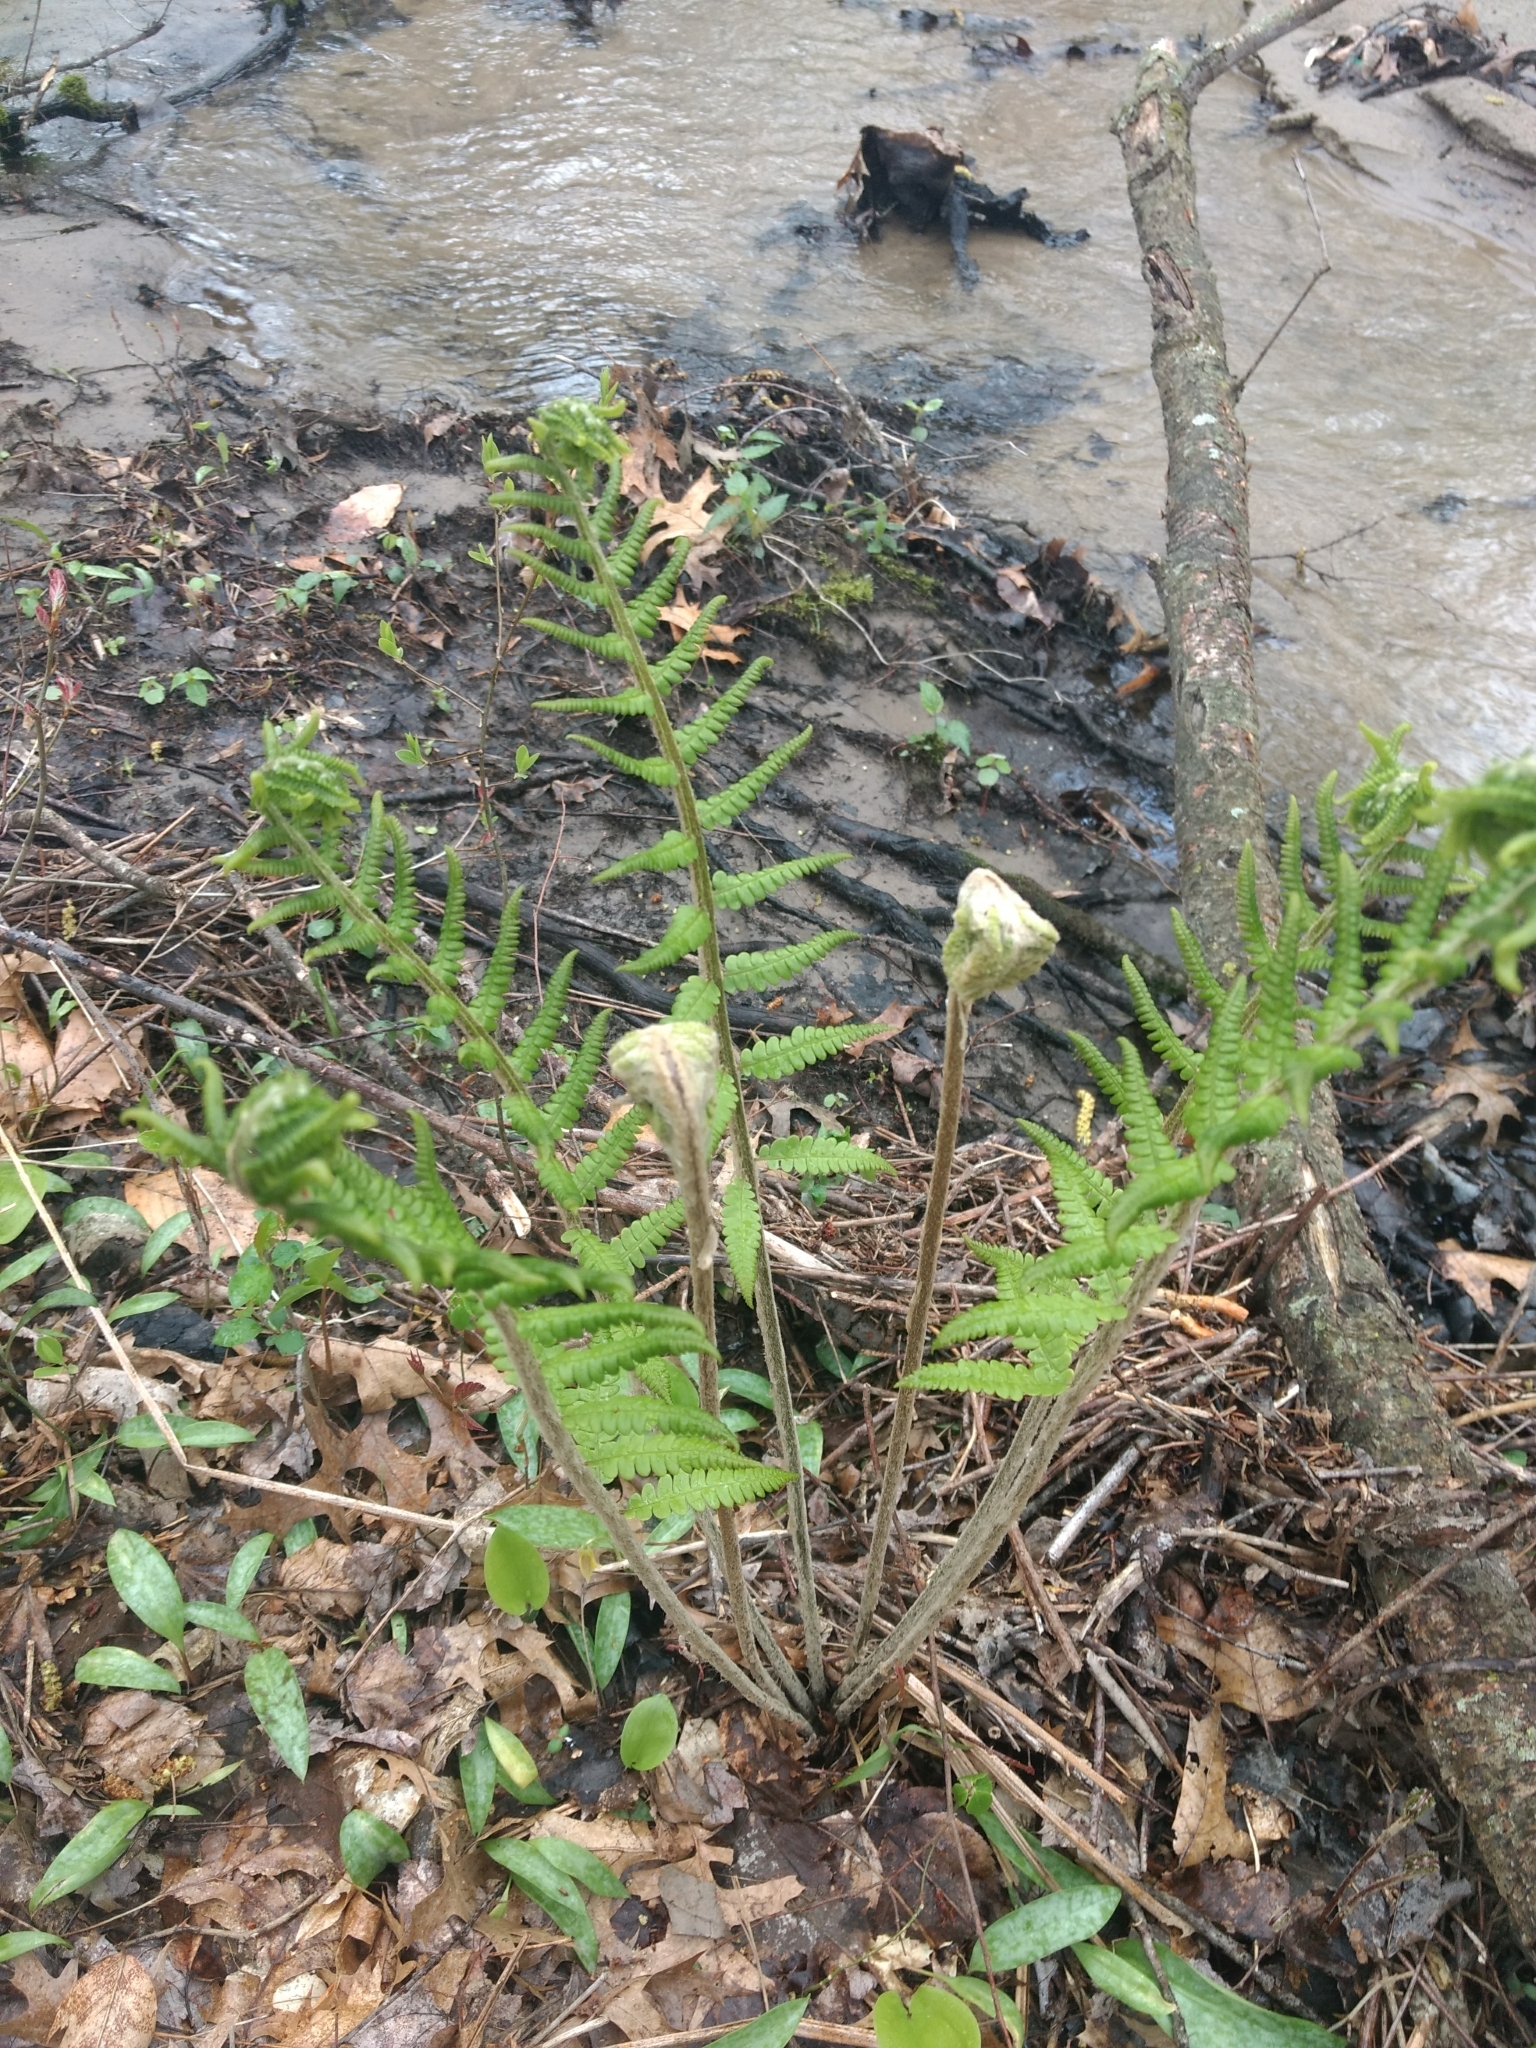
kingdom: Plantae
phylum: Tracheophyta
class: Polypodiopsida
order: Osmundales
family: Osmundaceae
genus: Osmundastrum
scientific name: Osmundastrum cinnamomeum
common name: Cinnamon fern
